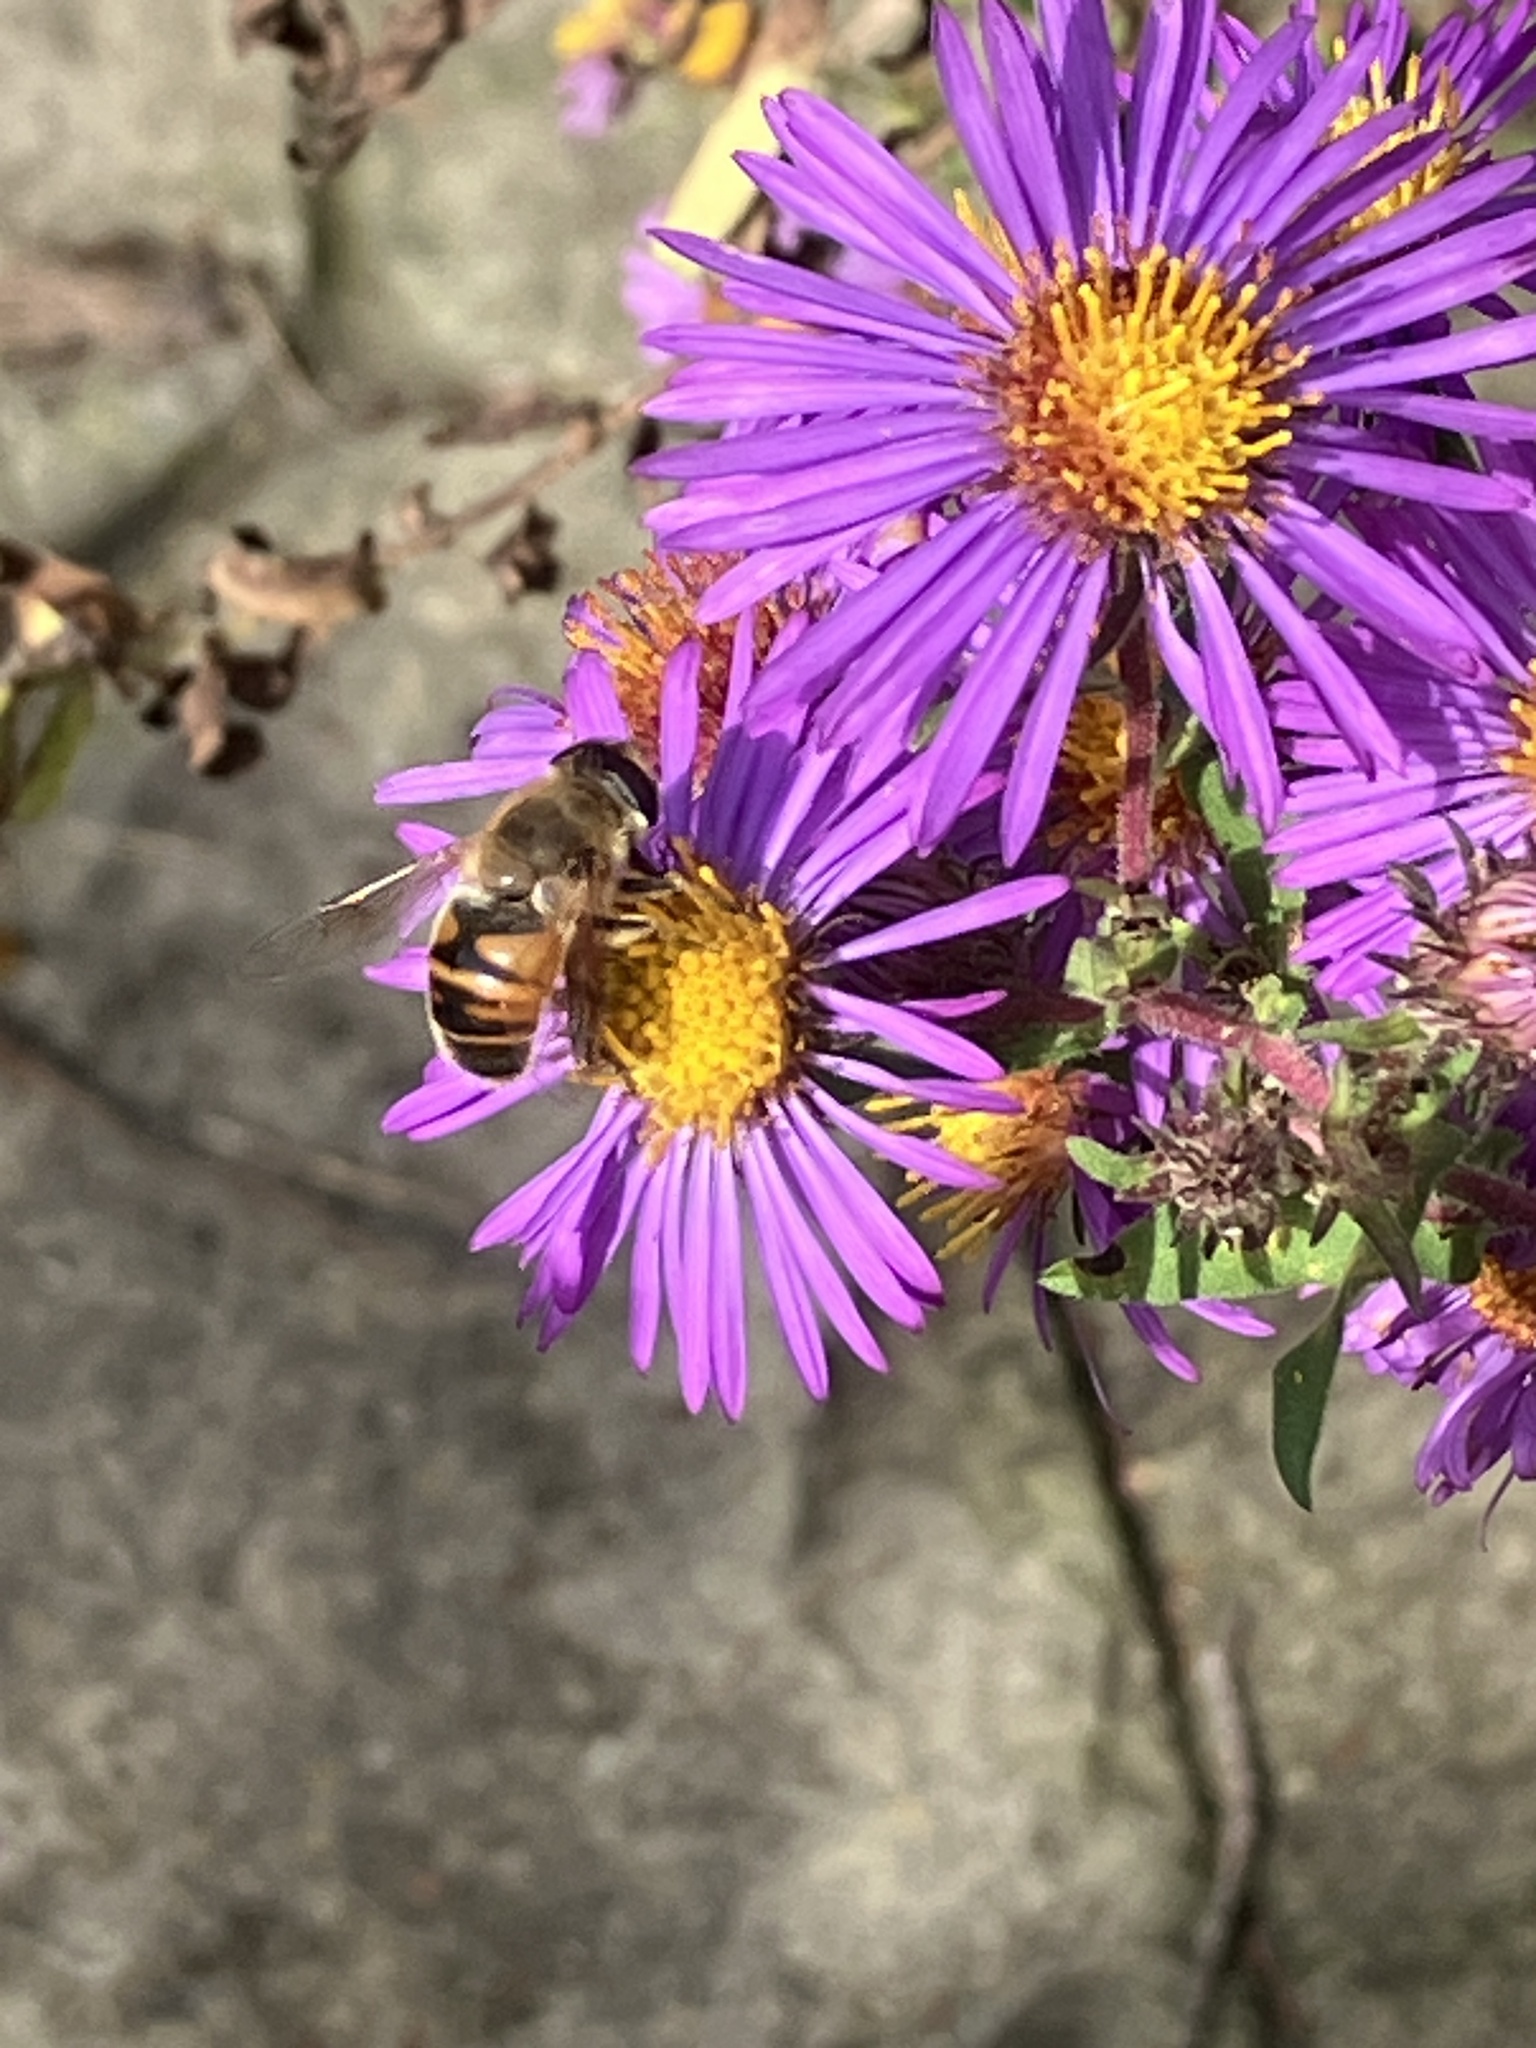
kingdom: Animalia
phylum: Arthropoda
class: Insecta
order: Diptera
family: Syrphidae
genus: Eristalis
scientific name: Eristalis tenax
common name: Drone fly
